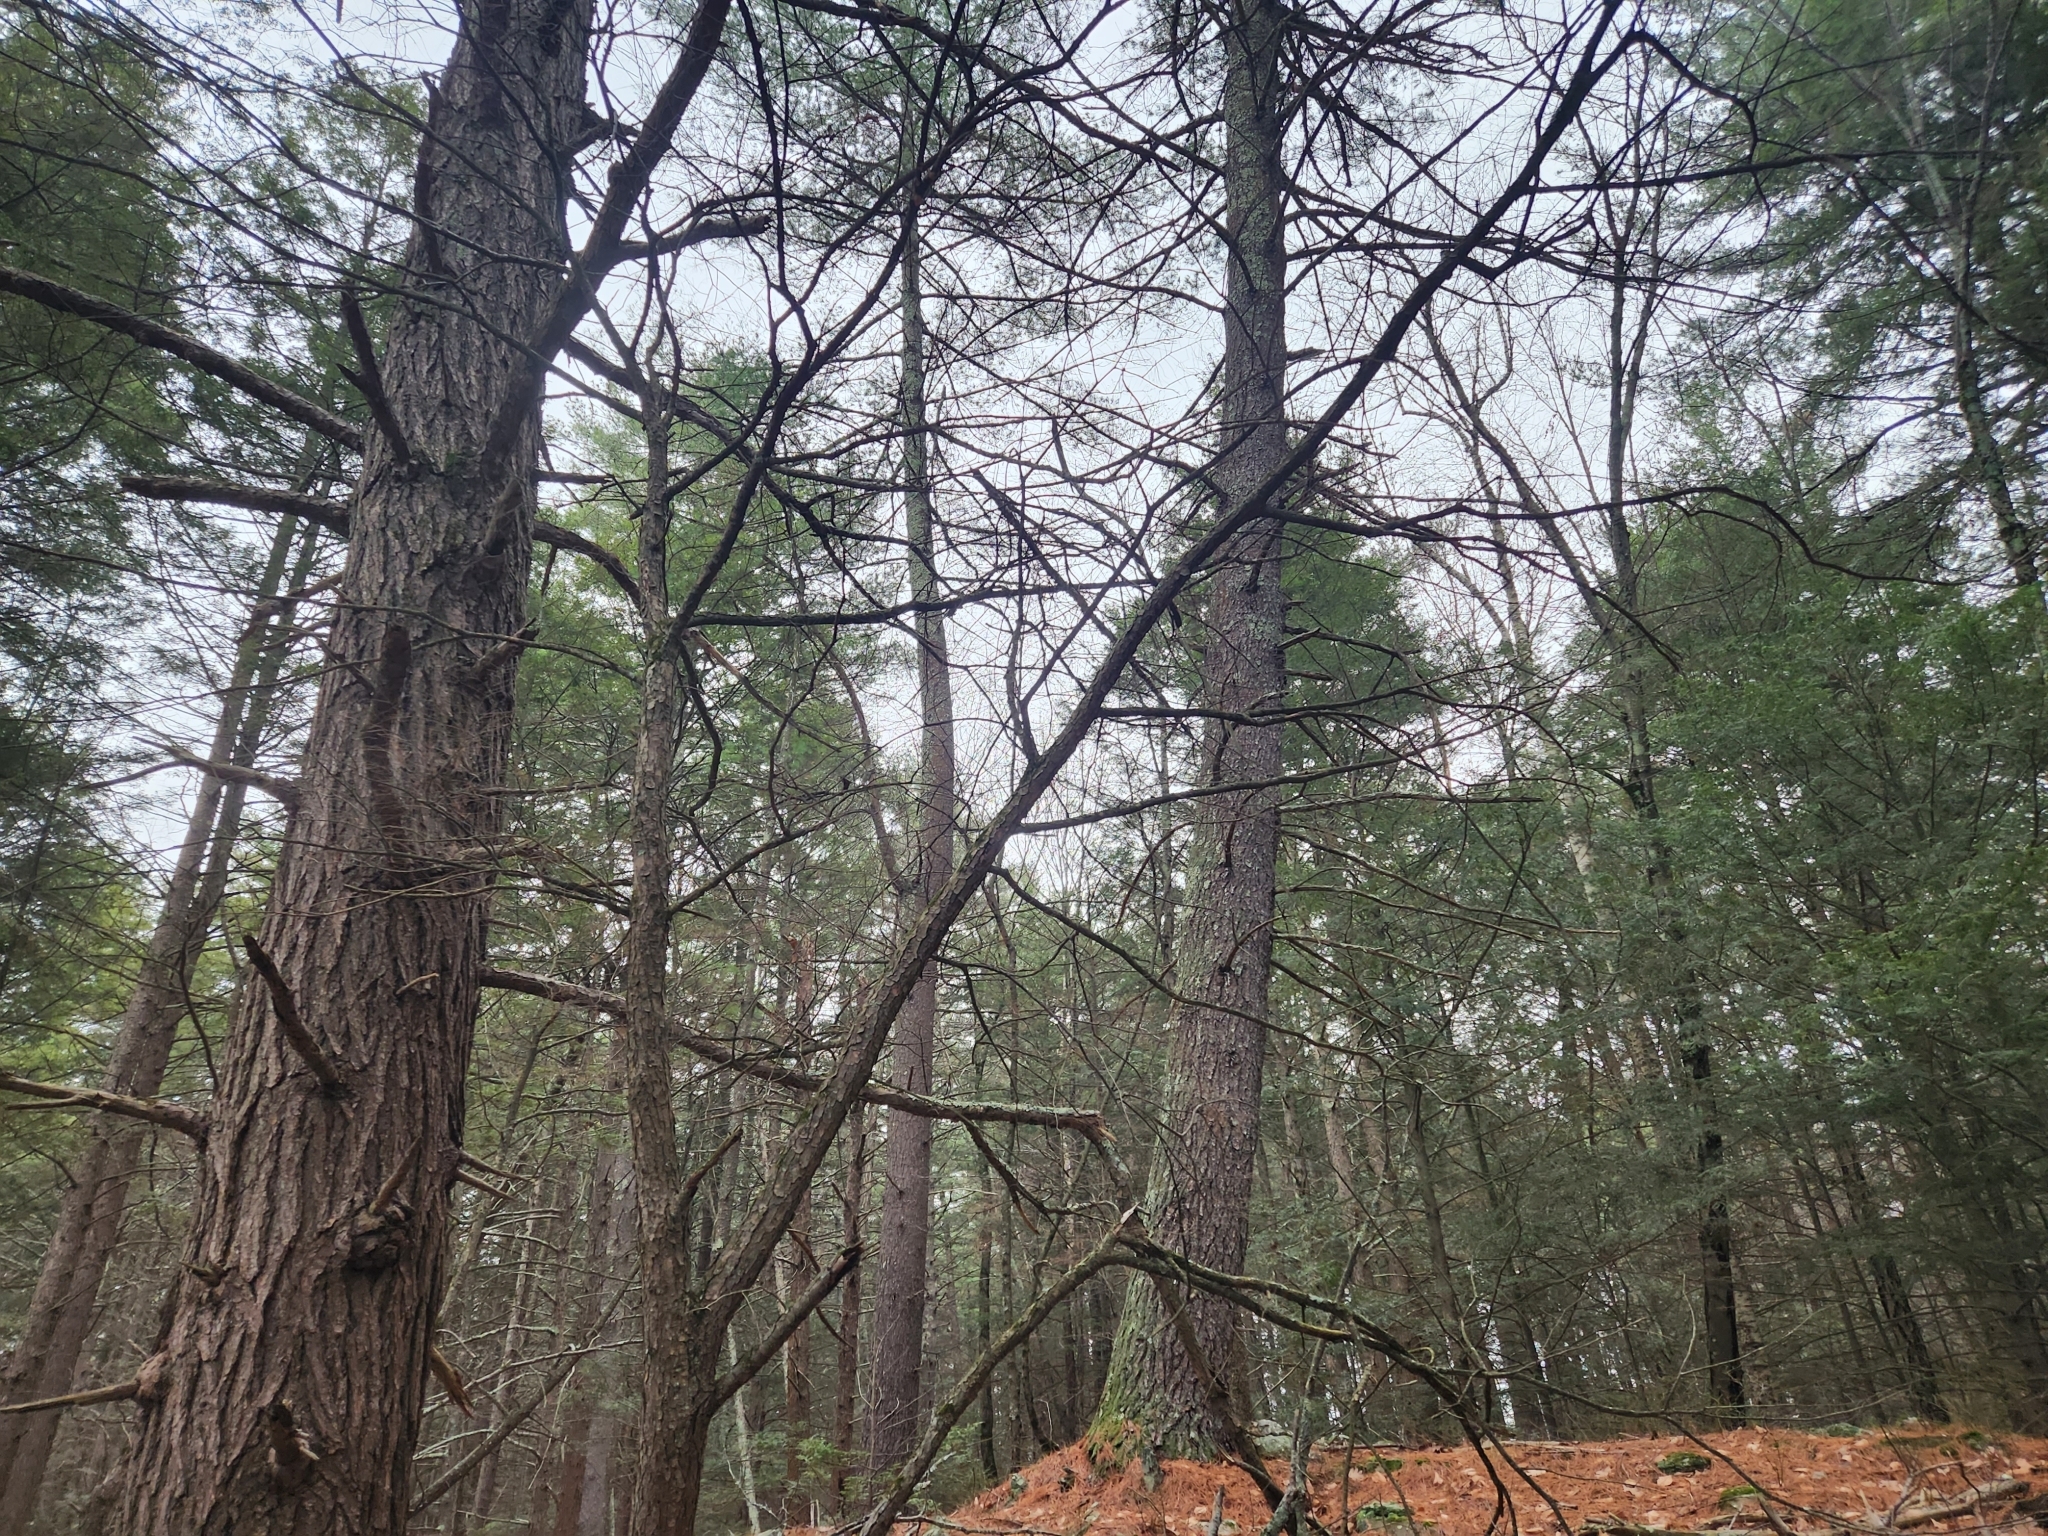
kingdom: Plantae
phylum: Tracheophyta
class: Pinopsida
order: Pinales
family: Pinaceae
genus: Tsuga
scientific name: Tsuga canadensis
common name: Eastern hemlock
